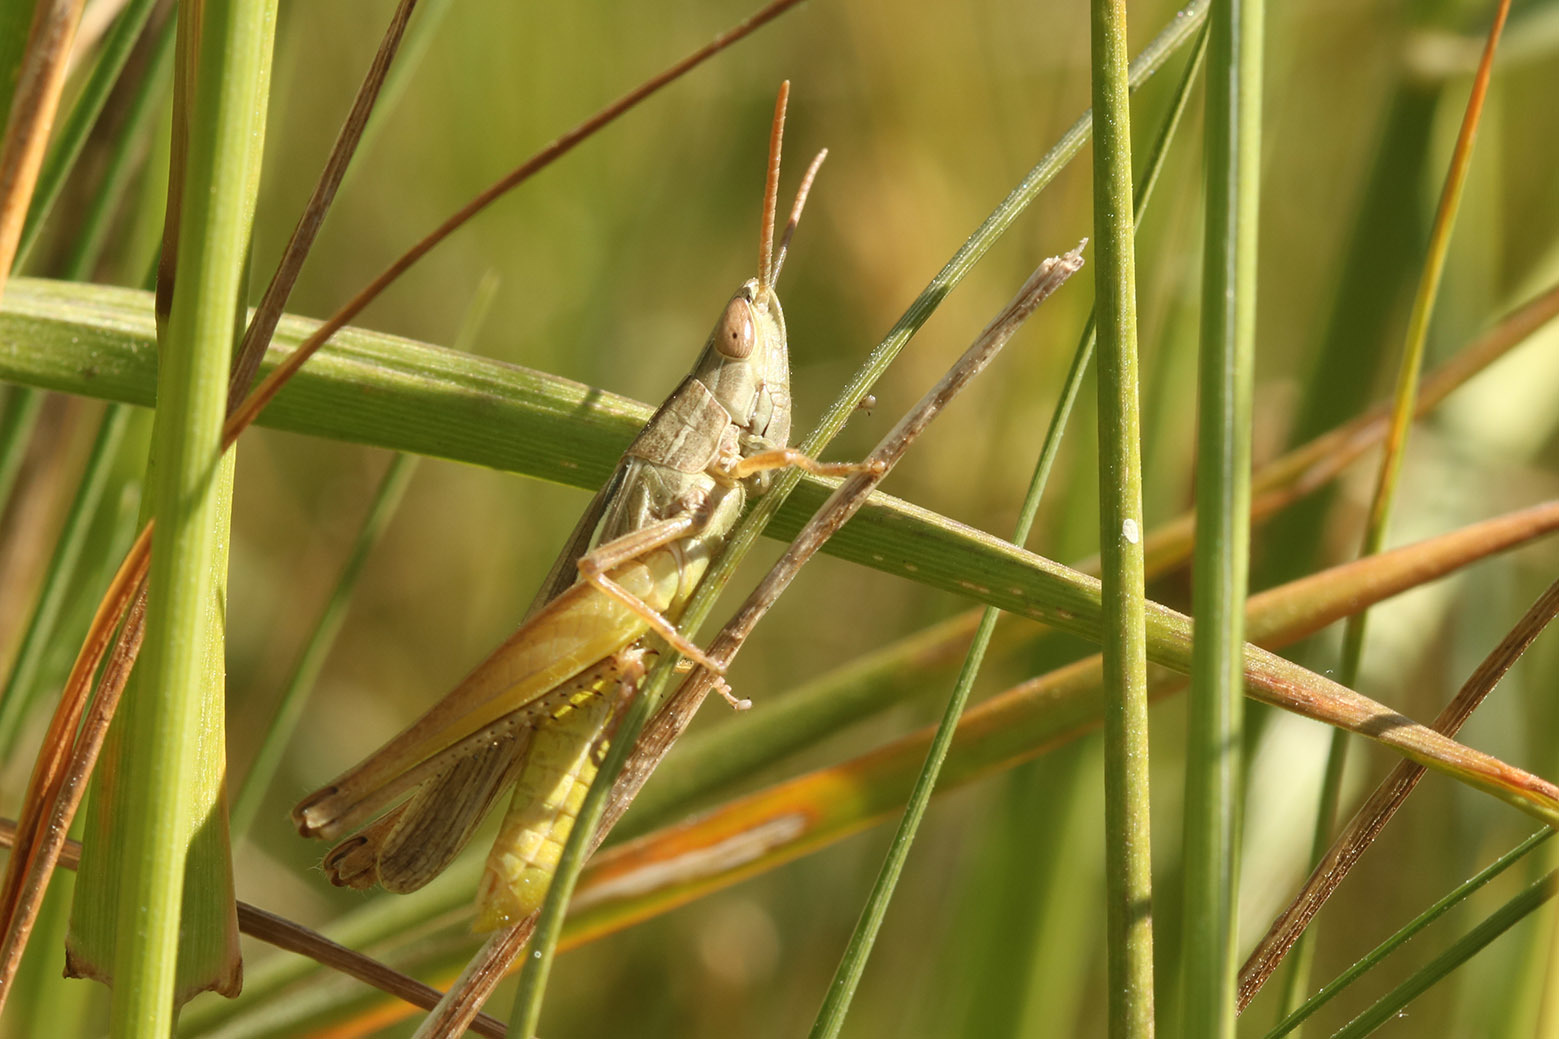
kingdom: Animalia
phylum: Arthropoda
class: Insecta
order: Orthoptera
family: Acrididae
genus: Sinipta
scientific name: Sinipta dalmani
